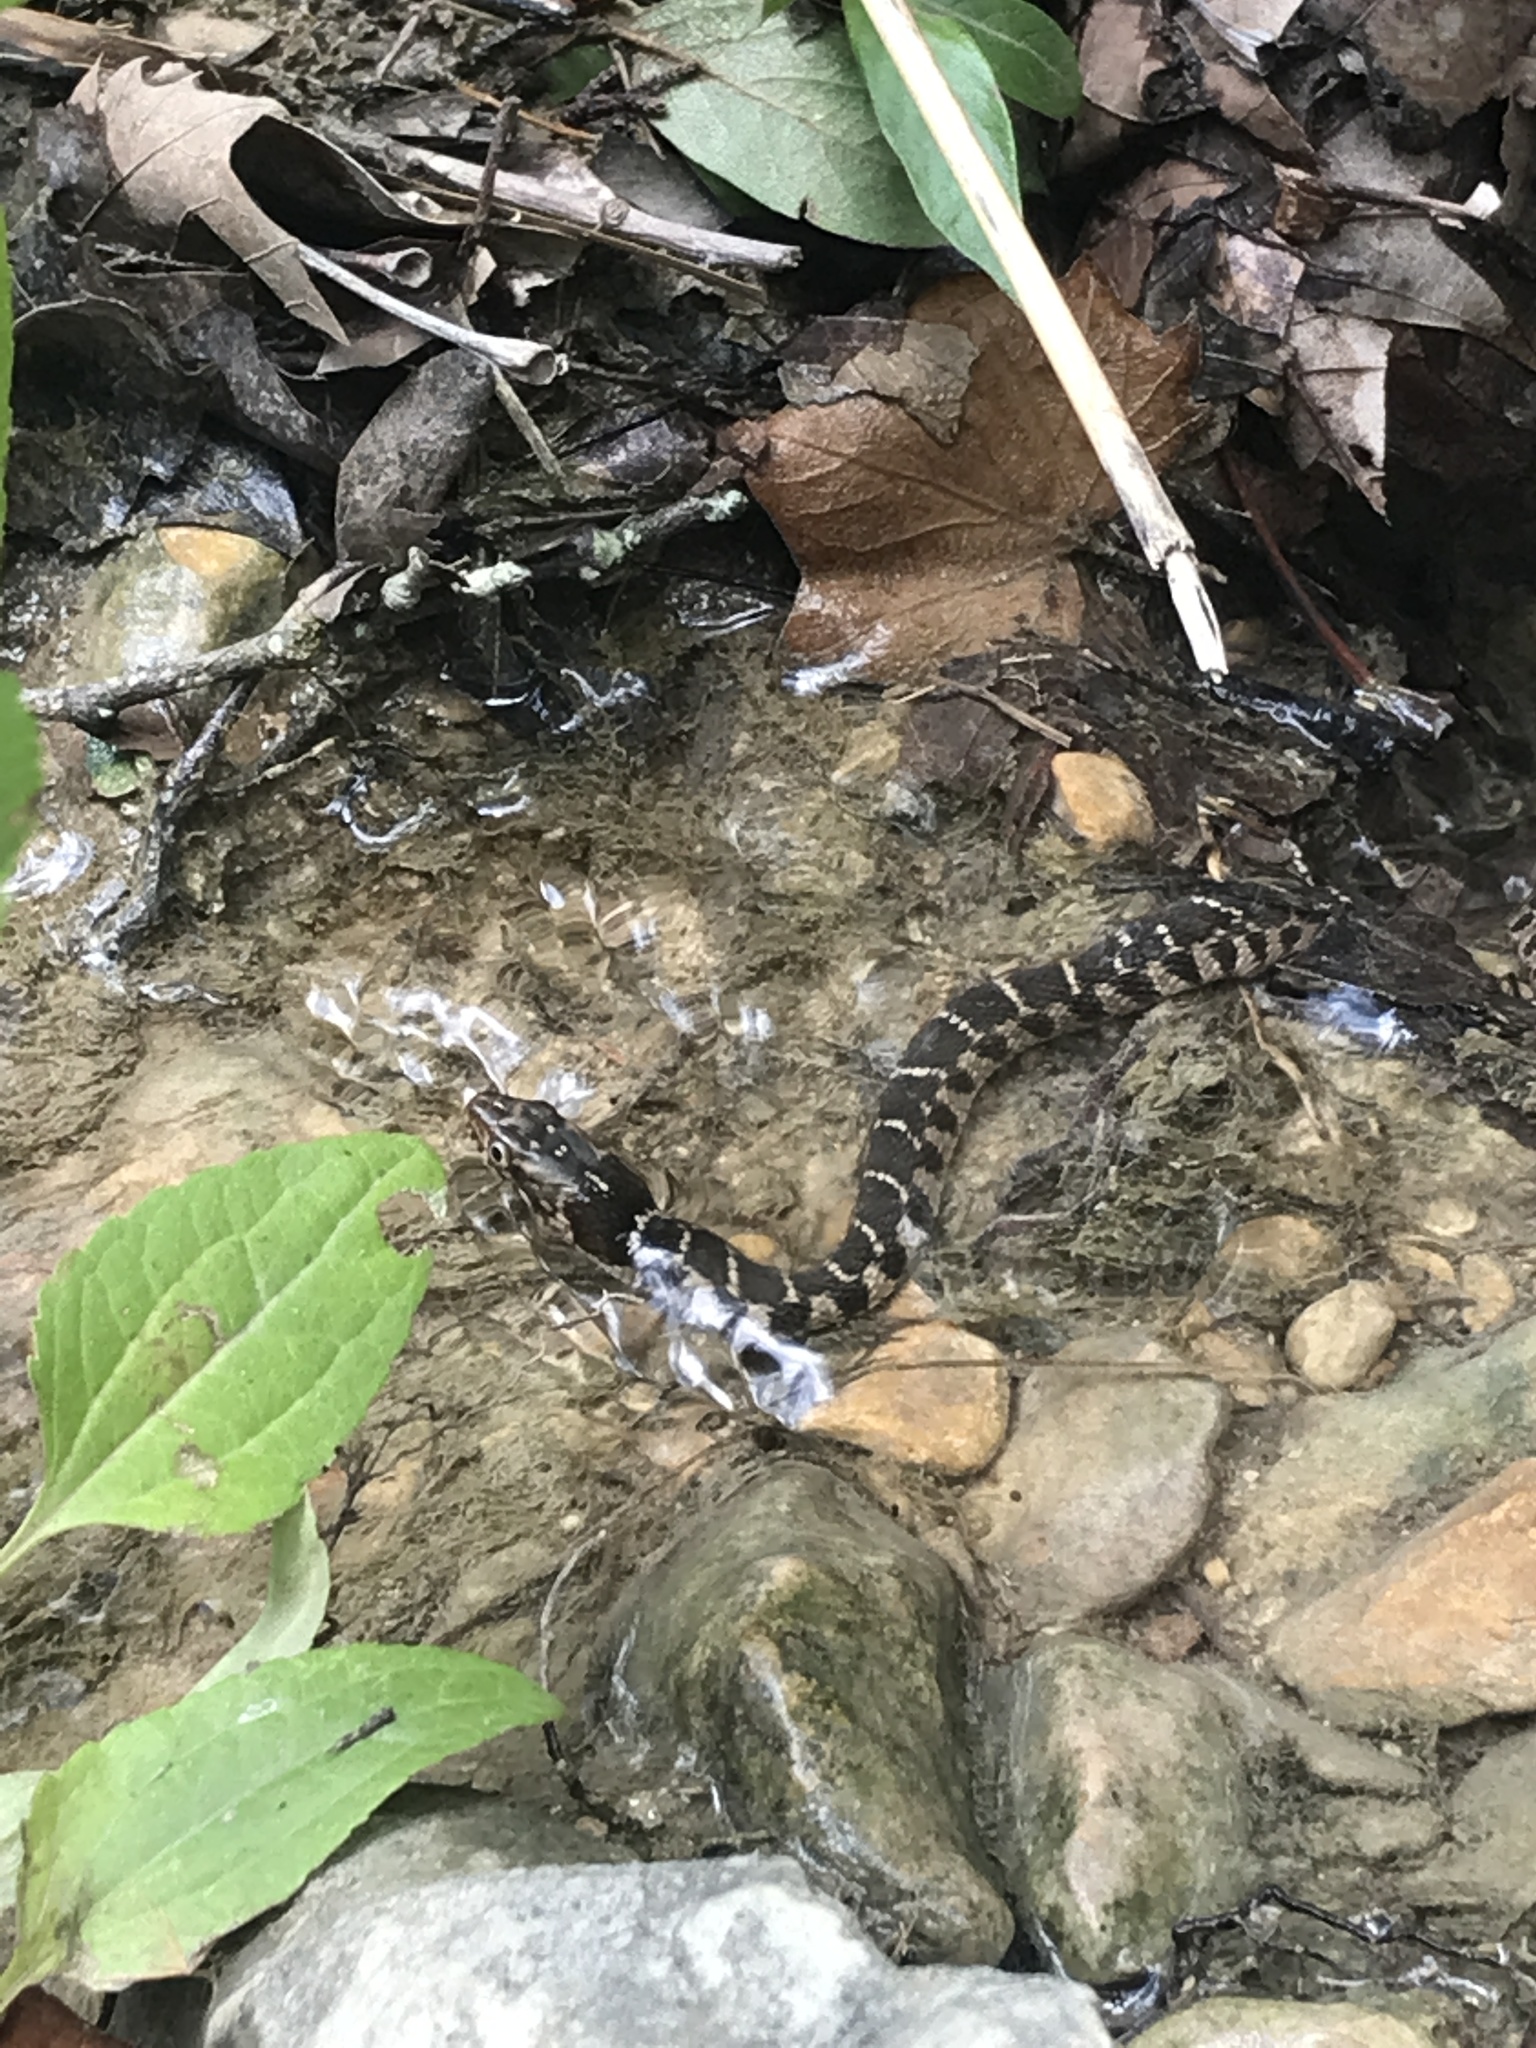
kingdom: Animalia
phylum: Chordata
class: Squamata
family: Colubridae
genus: Nerodia
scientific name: Nerodia erythrogaster
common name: Plainbelly water snake
